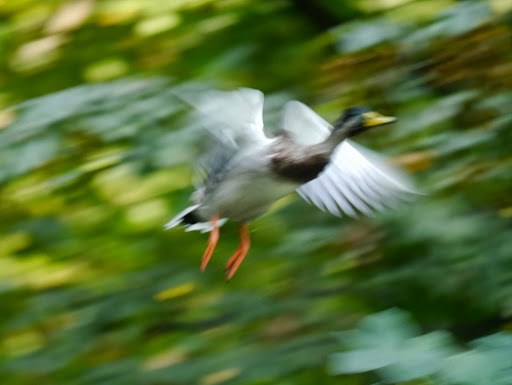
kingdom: Animalia
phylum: Chordata
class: Aves
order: Anseriformes
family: Anatidae
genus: Anas
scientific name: Anas platyrhynchos
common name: Mallard
